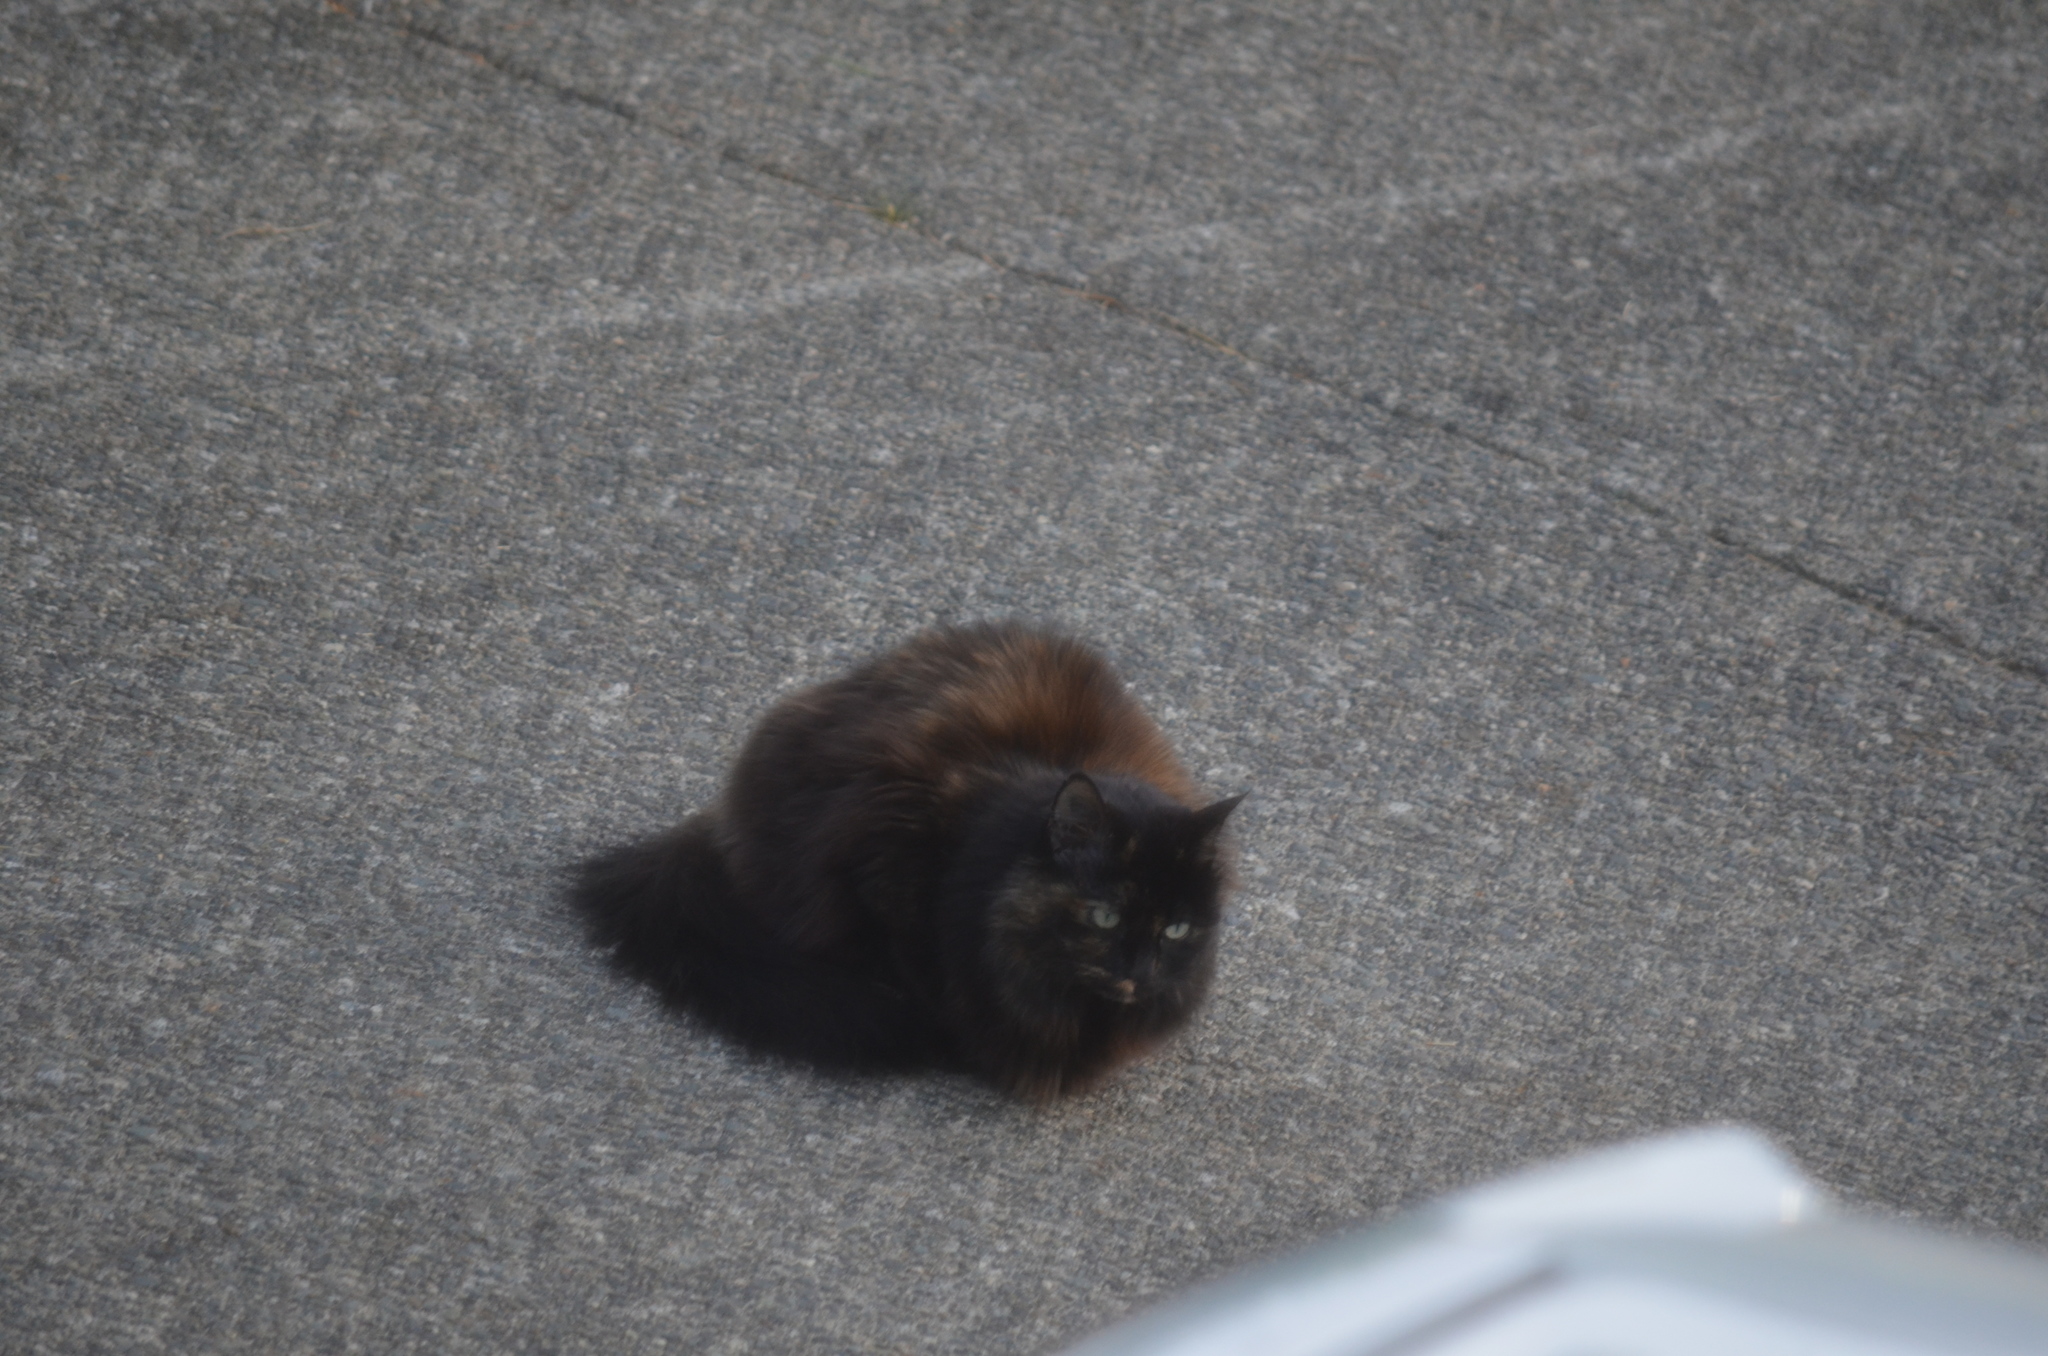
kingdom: Animalia
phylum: Chordata
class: Mammalia
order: Carnivora
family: Felidae
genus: Felis
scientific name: Felis catus
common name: Domestic cat
